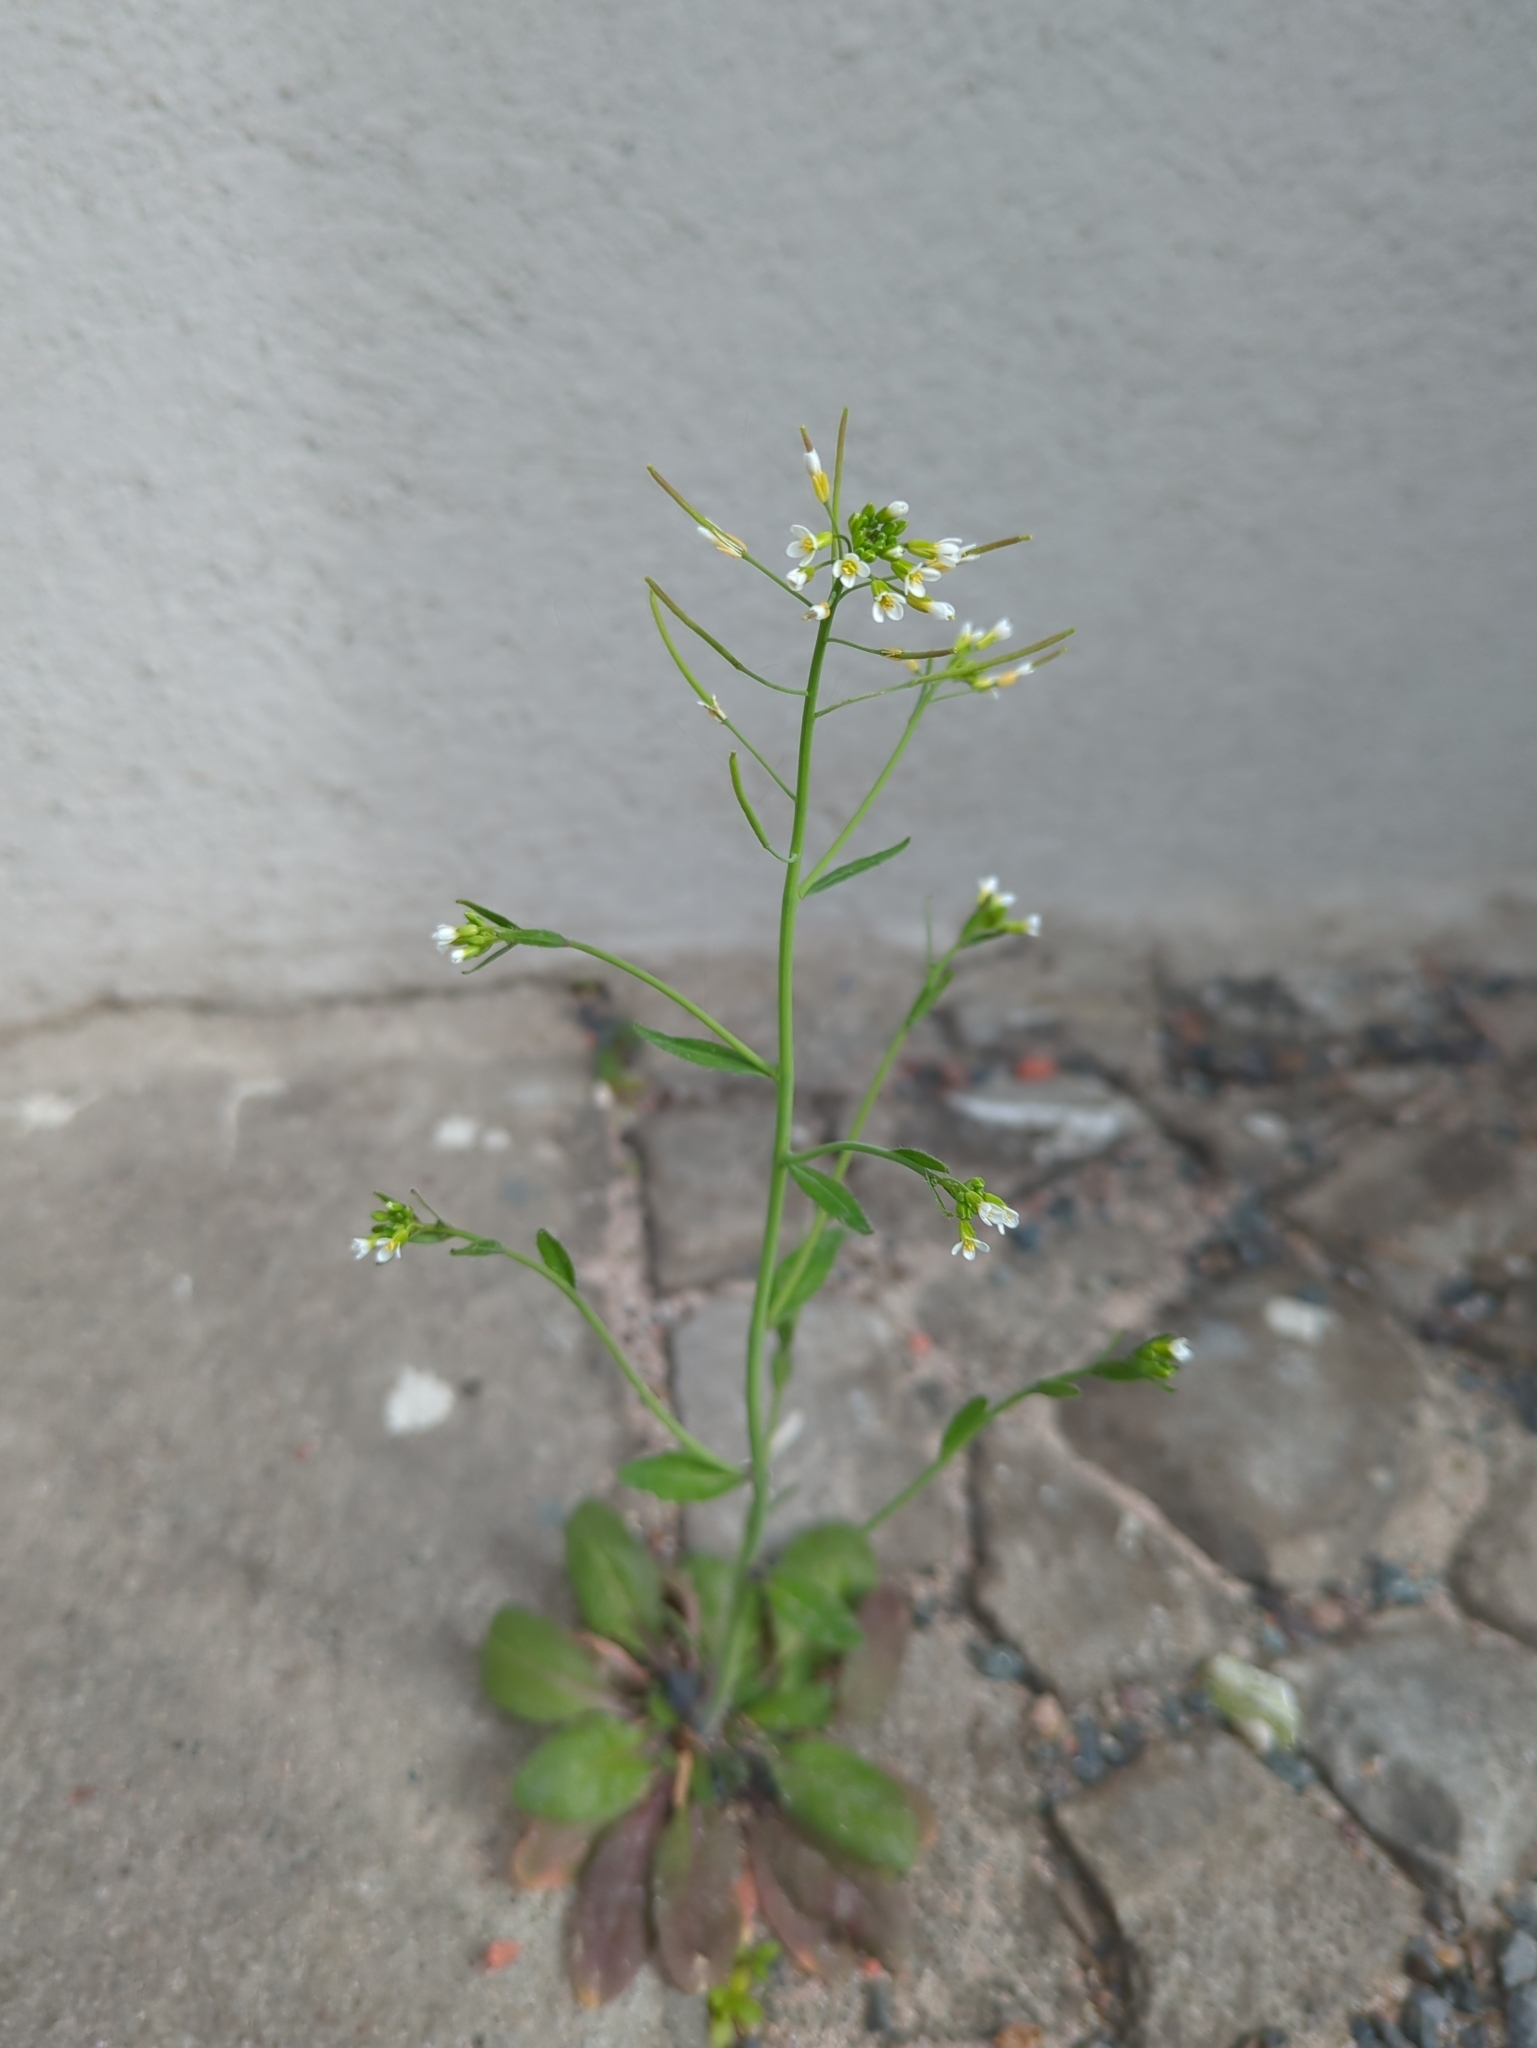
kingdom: Plantae
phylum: Tracheophyta
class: Magnoliopsida
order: Brassicales
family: Brassicaceae
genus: Arabidopsis
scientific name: Arabidopsis thaliana
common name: Thale cress
